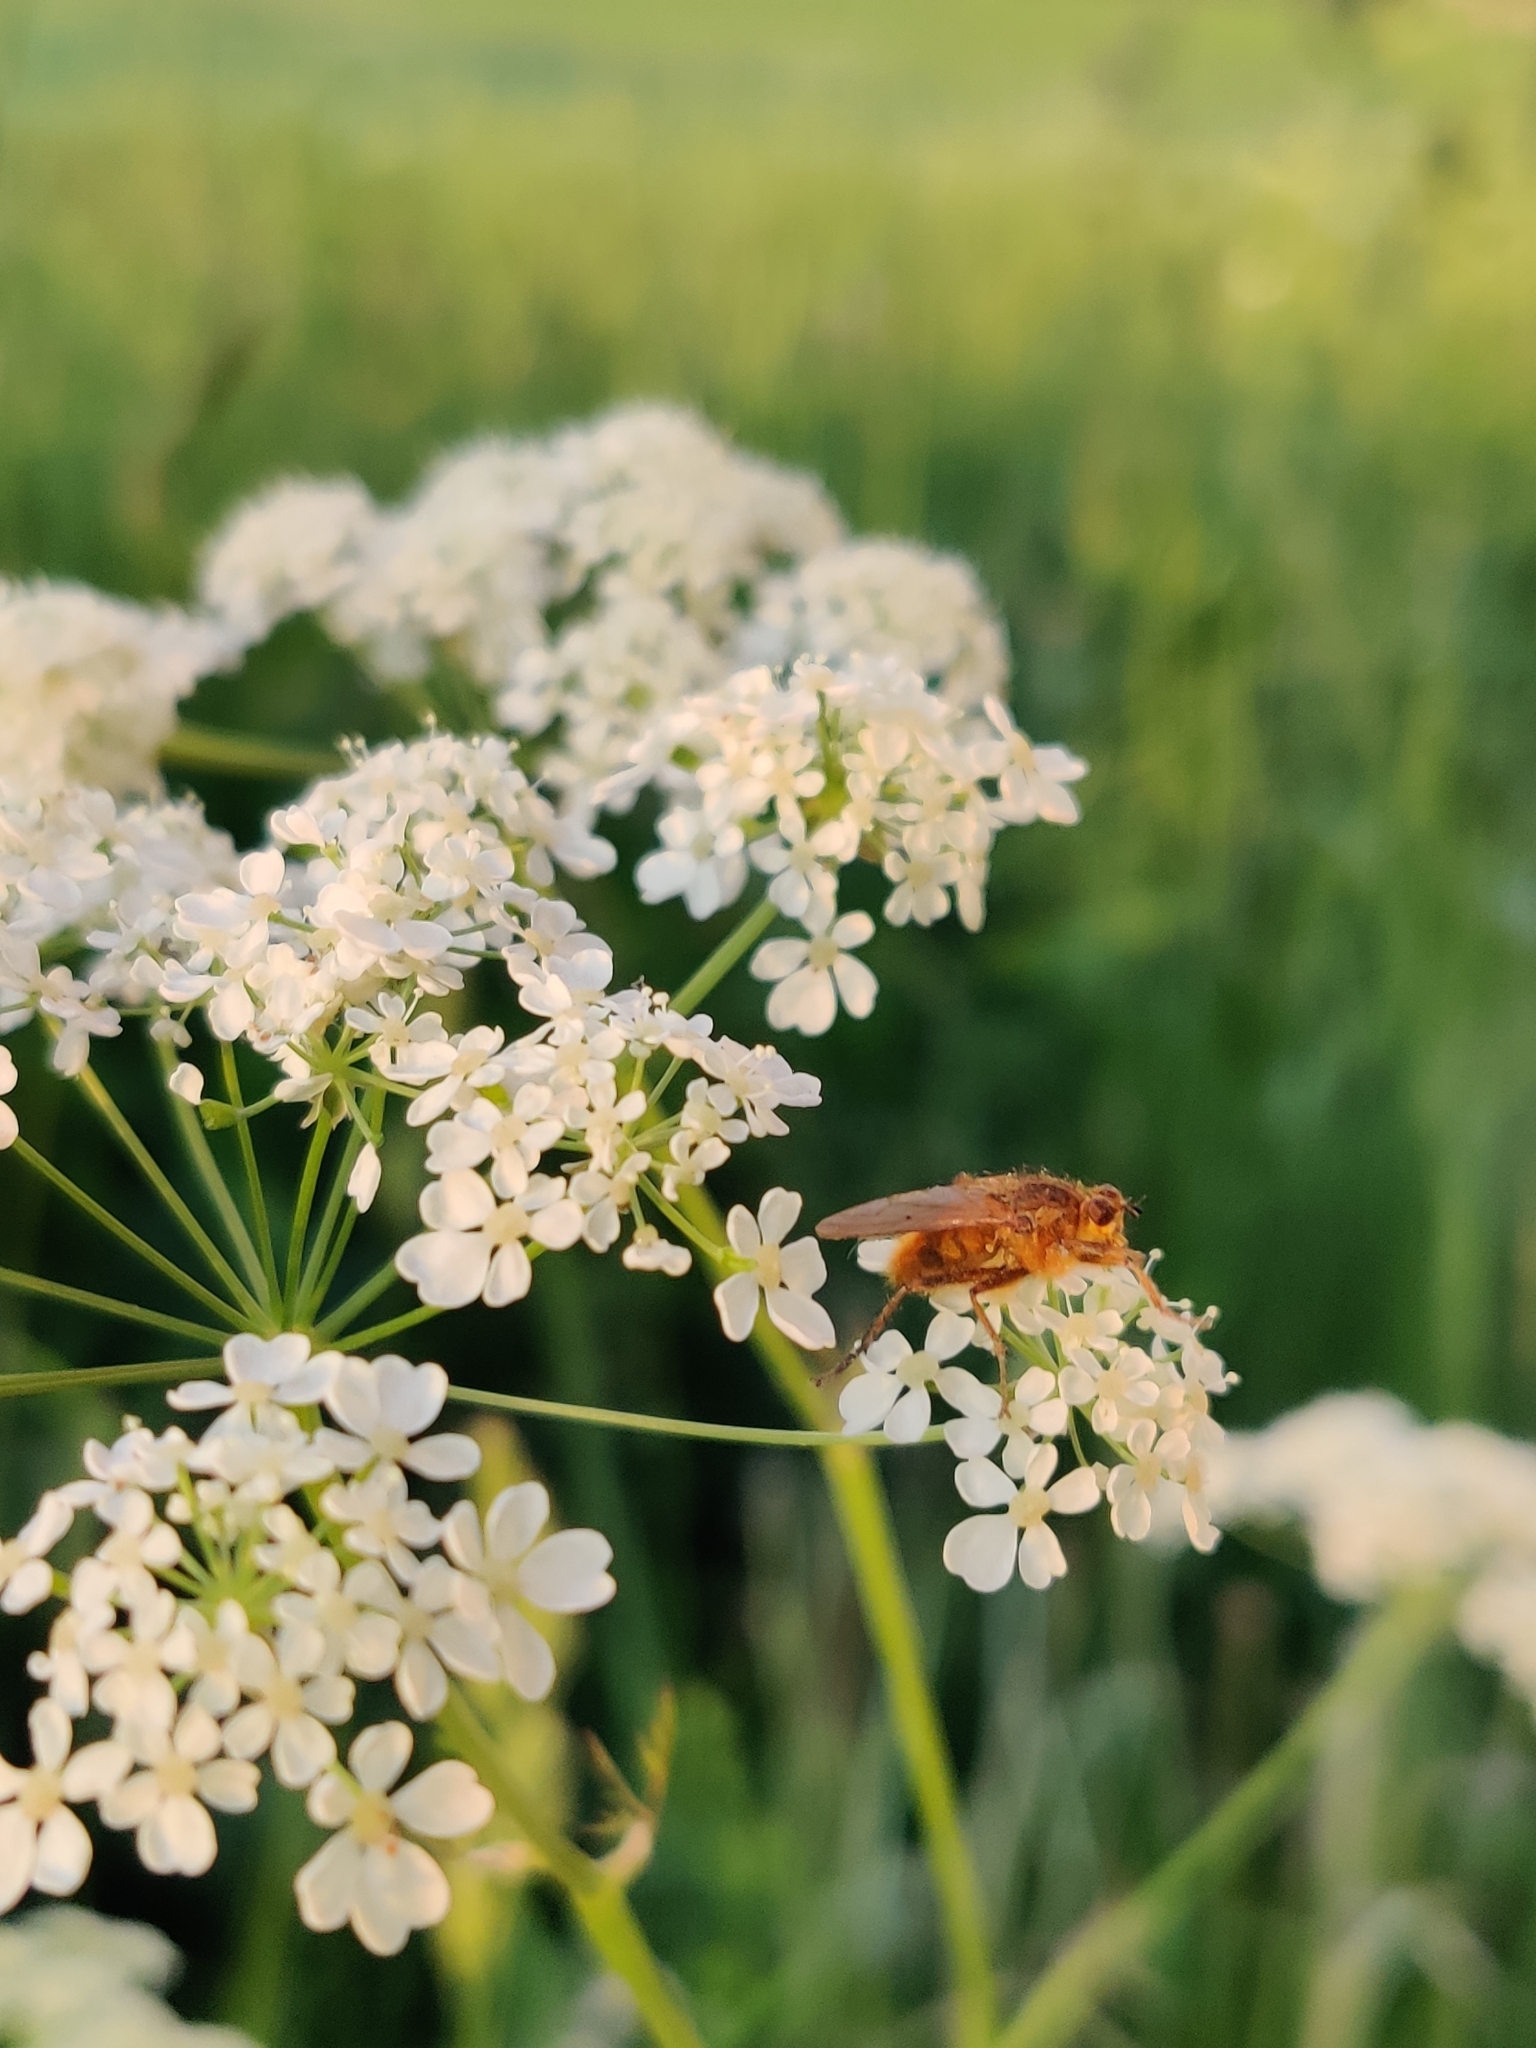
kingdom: Animalia
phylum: Arthropoda
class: Insecta
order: Diptera
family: Scathophagidae
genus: Scathophaga
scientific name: Scathophaga stercoraria
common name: Yellow dung fly
